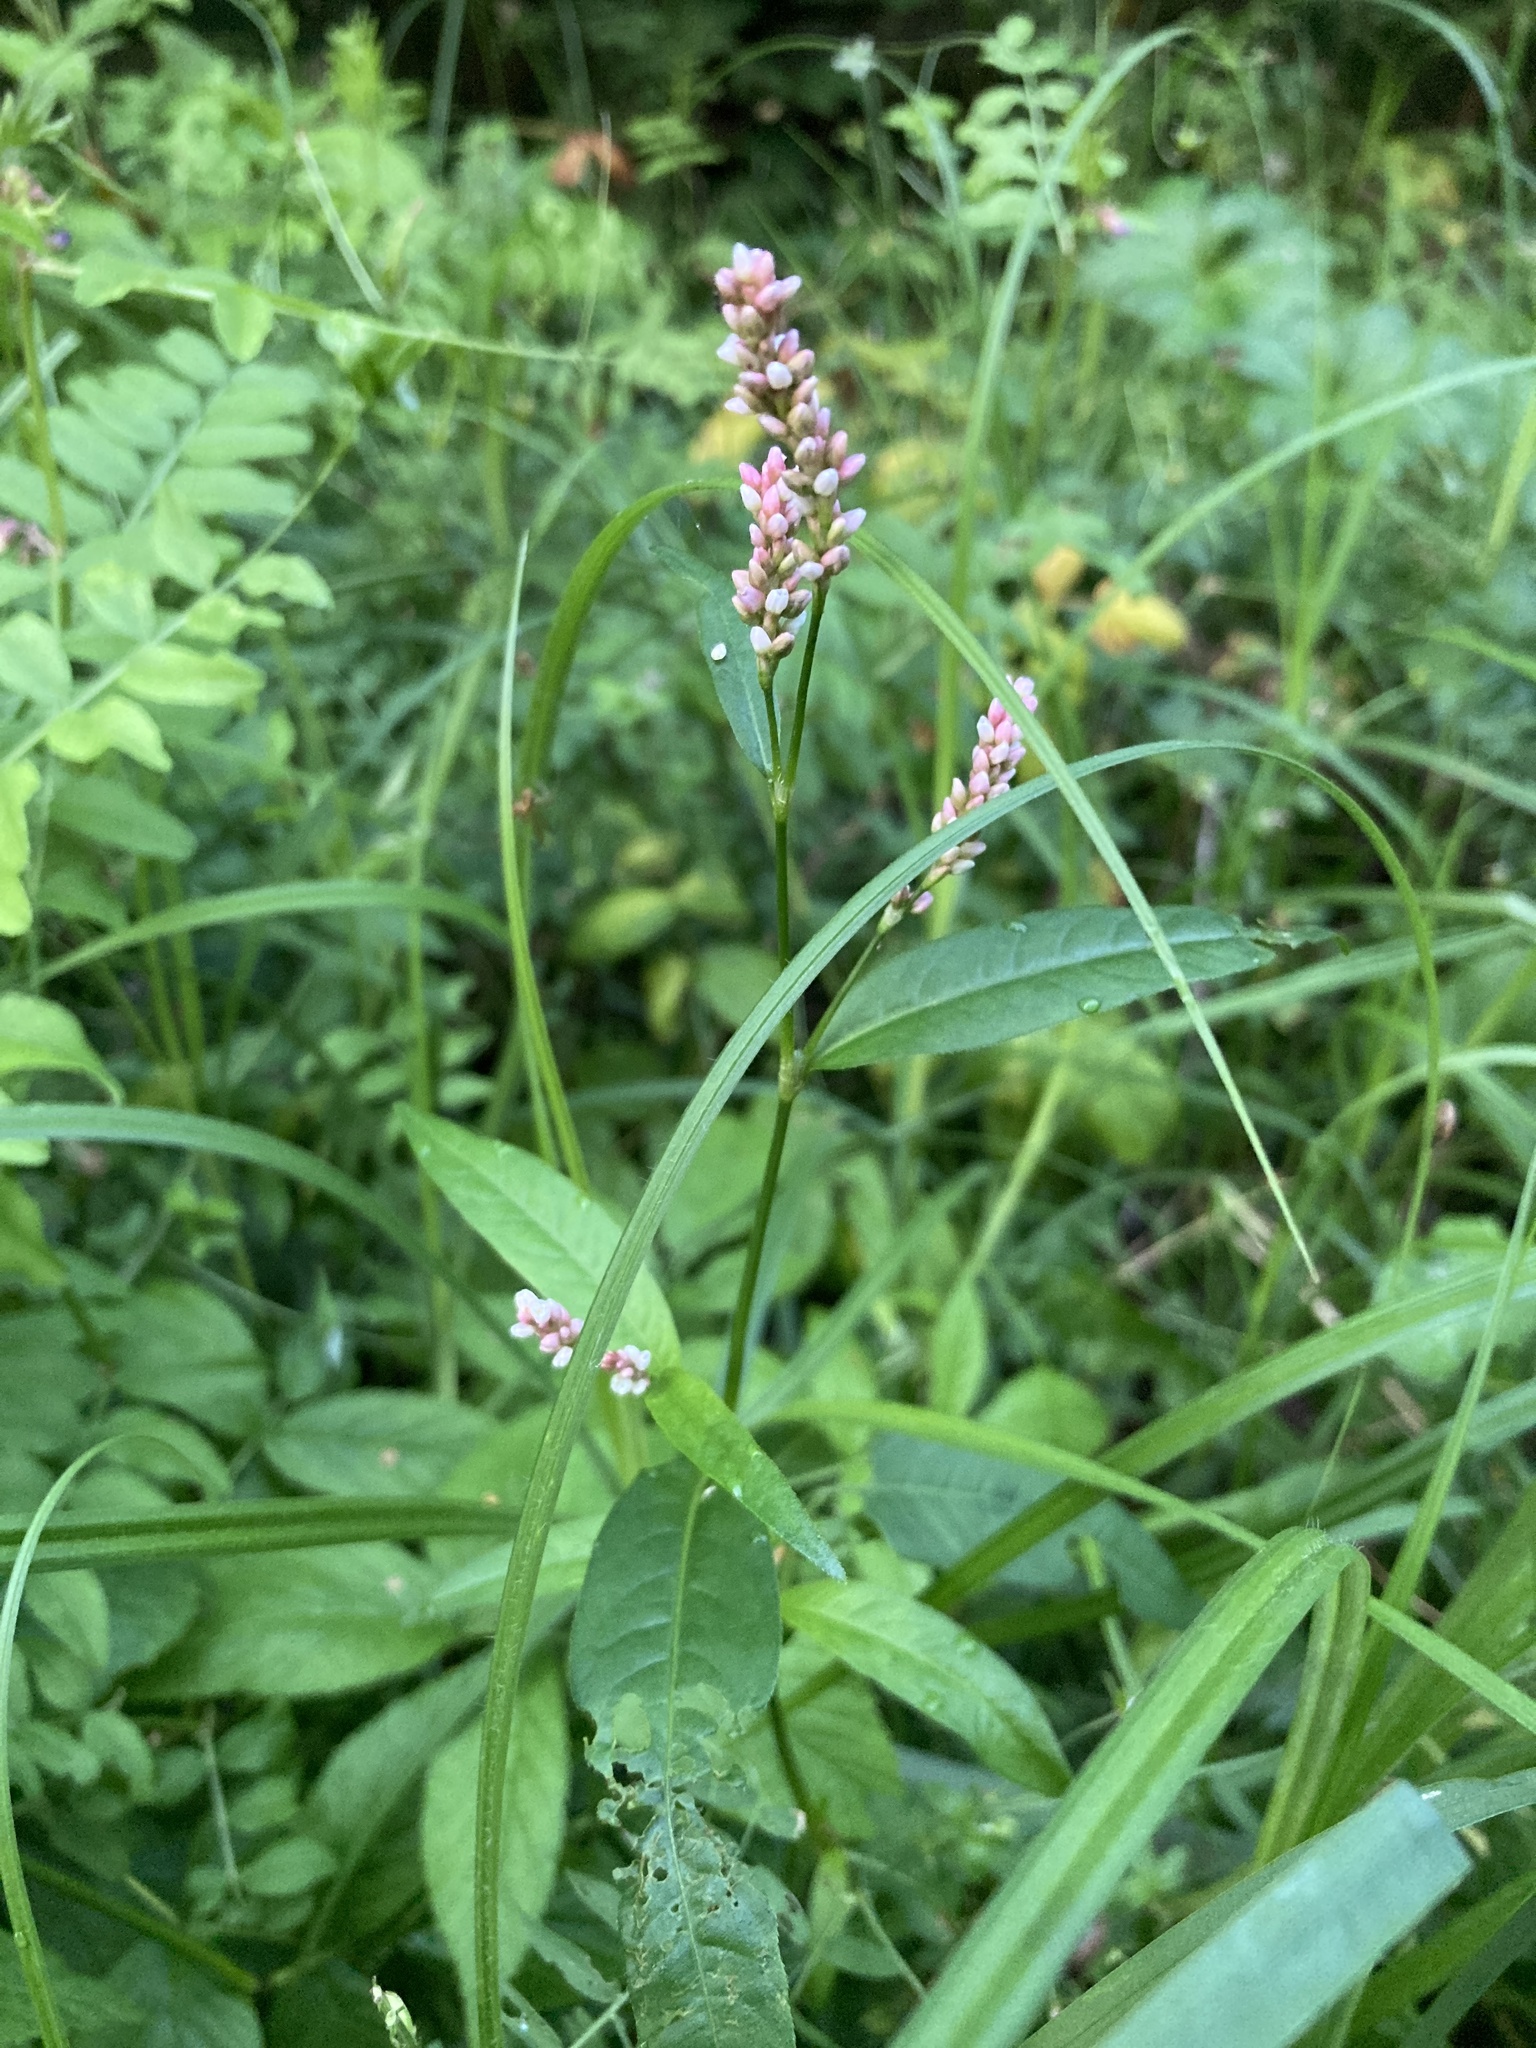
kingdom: Plantae
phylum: Tracheophyta
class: Magnoliopsida
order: Caryophyllales
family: Polygonaceae
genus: Persicaria
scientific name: Persicaria maculosa
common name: Redshank
